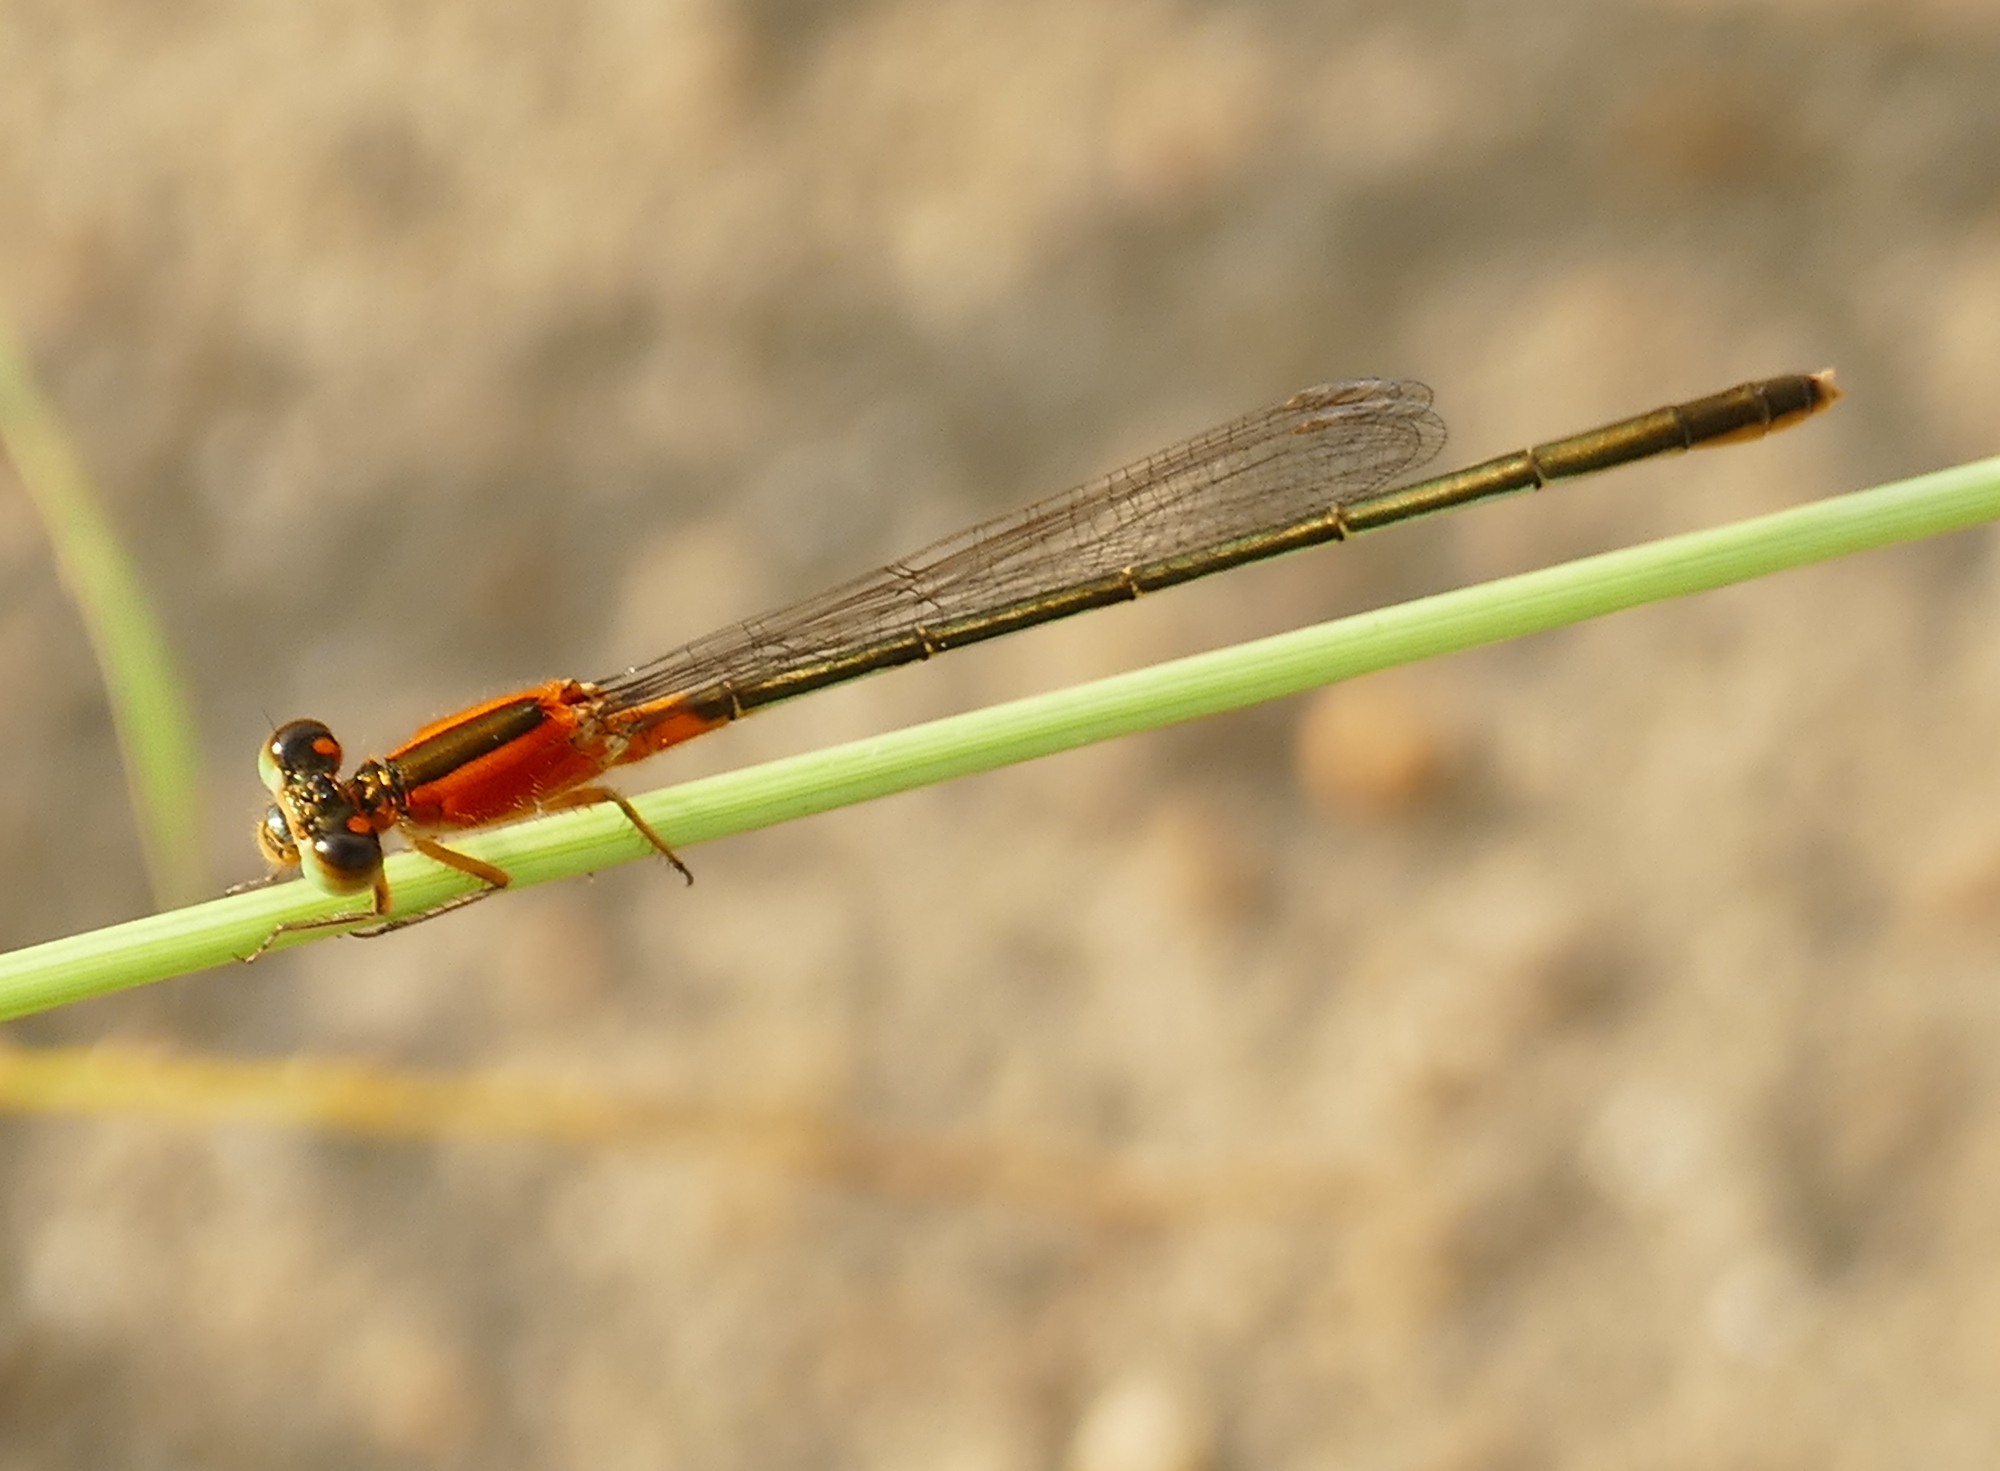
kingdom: Animalia
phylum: Arthropoda
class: Insecta
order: Odonata
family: Coenagrionidae
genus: Ischnura
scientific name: Ischnura ramburii
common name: Rambur's forktail
